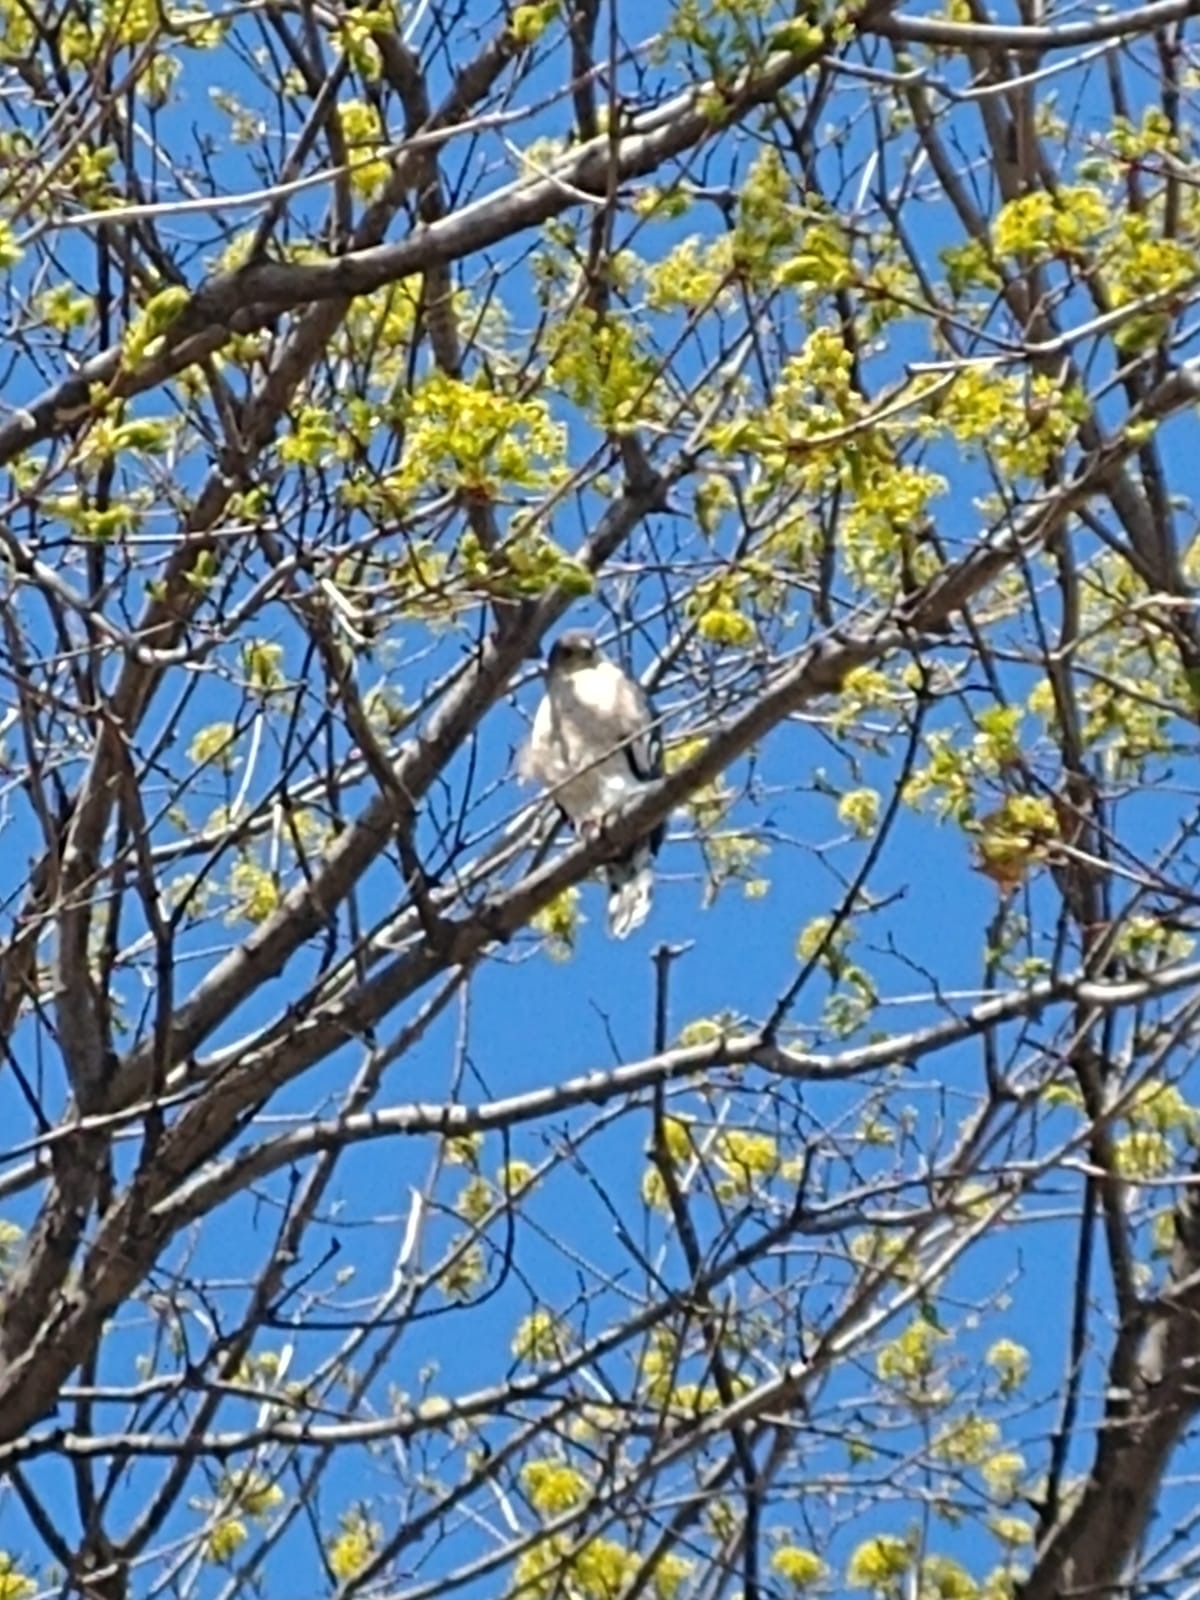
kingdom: Animalia
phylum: Chordata
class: Aves
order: Accipitriformes
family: Accipitridae
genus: Accipiter
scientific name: Accipiter cooperii
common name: Cooper's hawk
